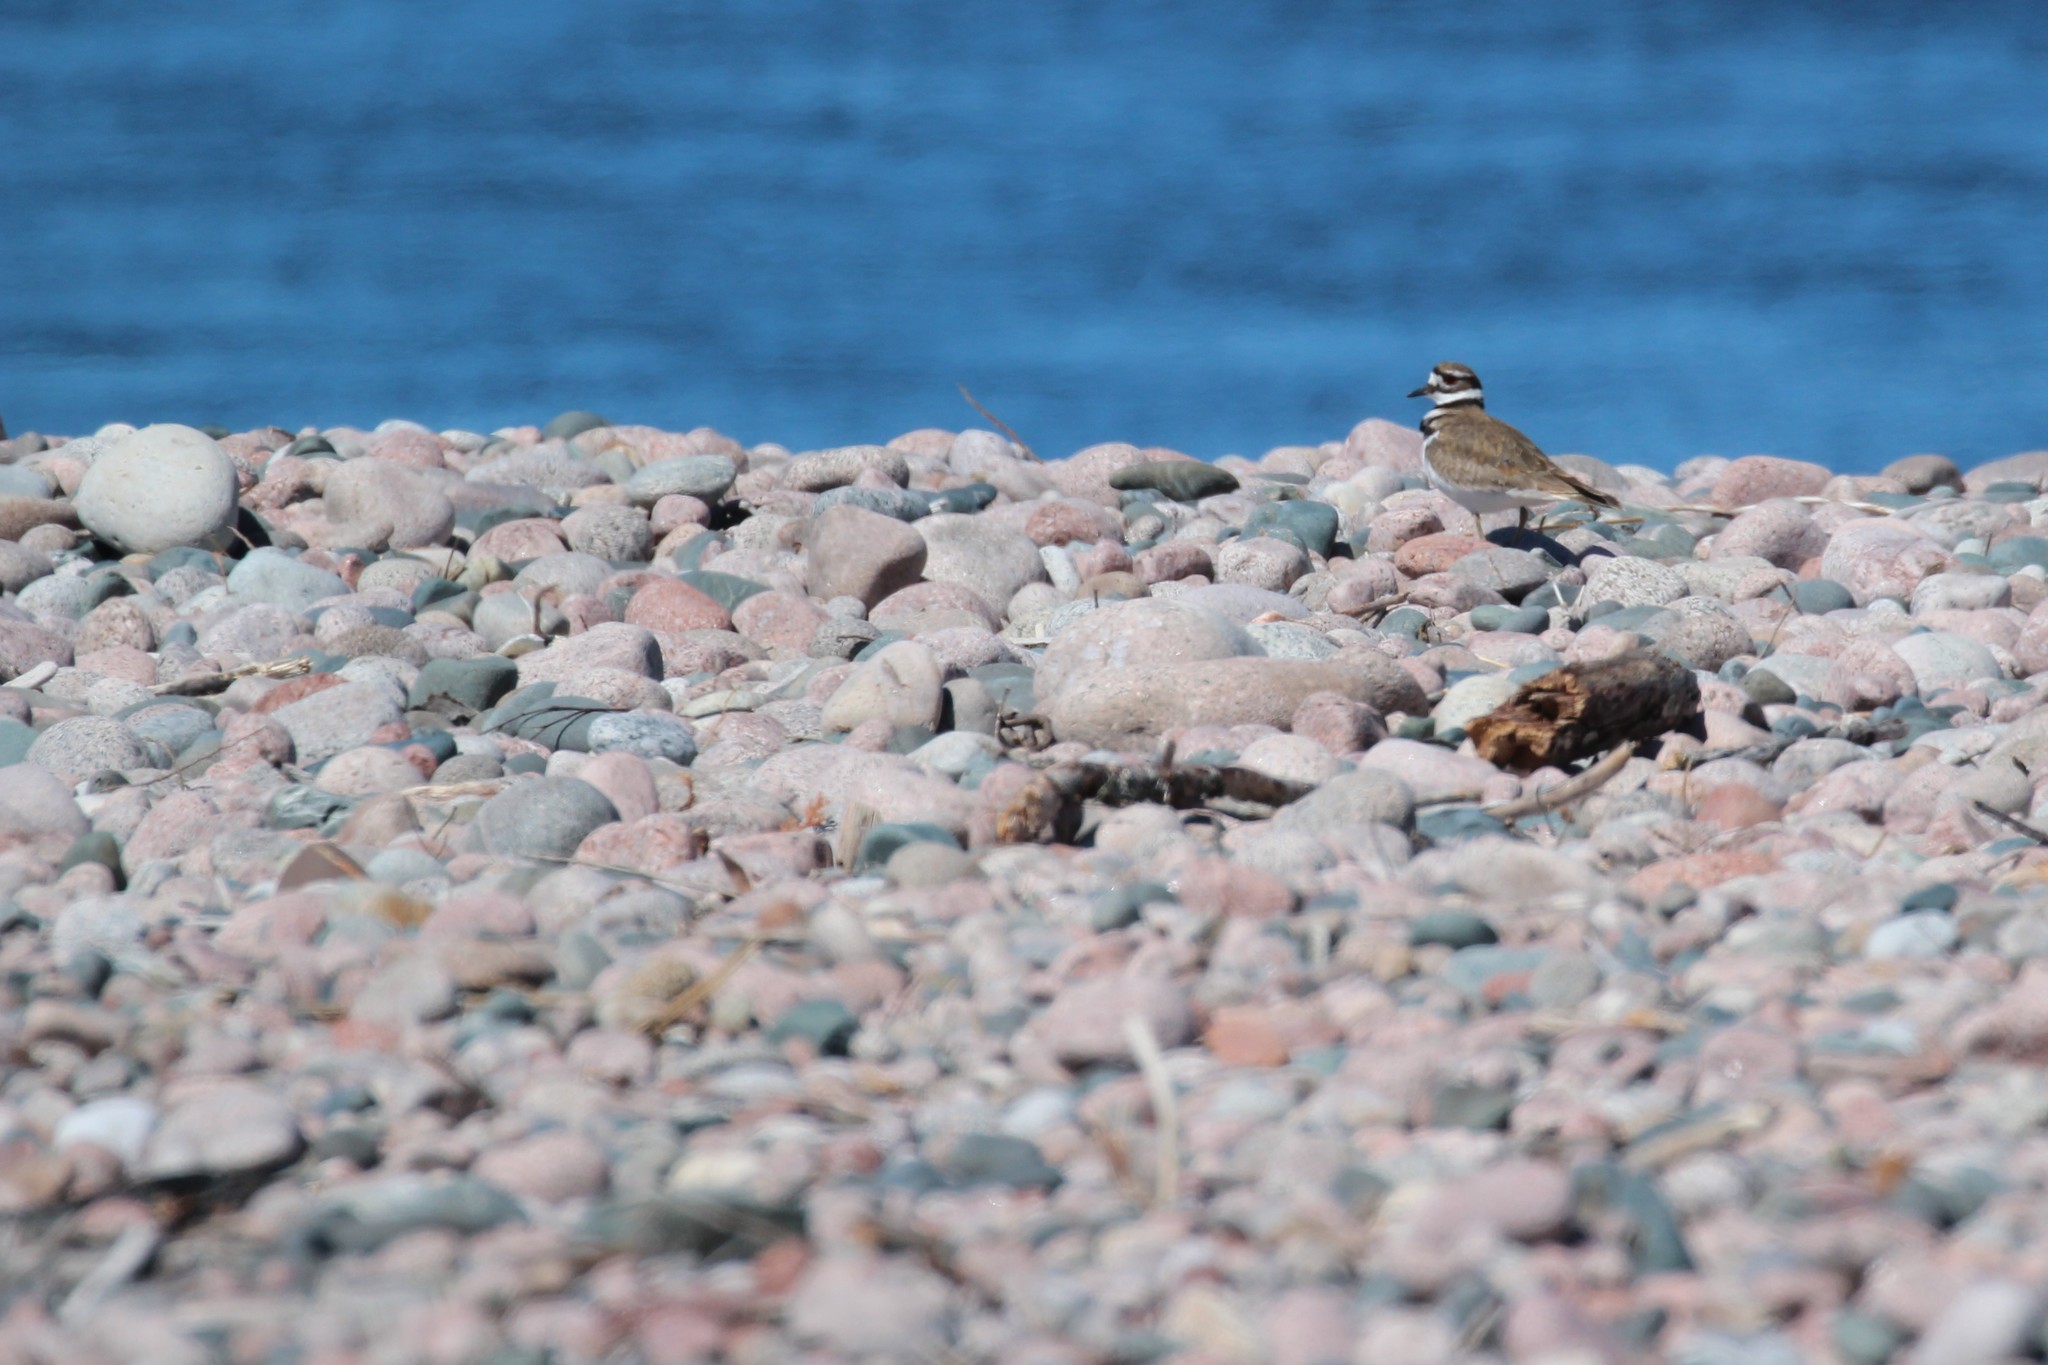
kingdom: Animalia
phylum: Chordata
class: Aves
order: Charadriiformes
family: Charadriidae
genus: Charadrius
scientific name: Charadrius vociferus
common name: Killdeer
